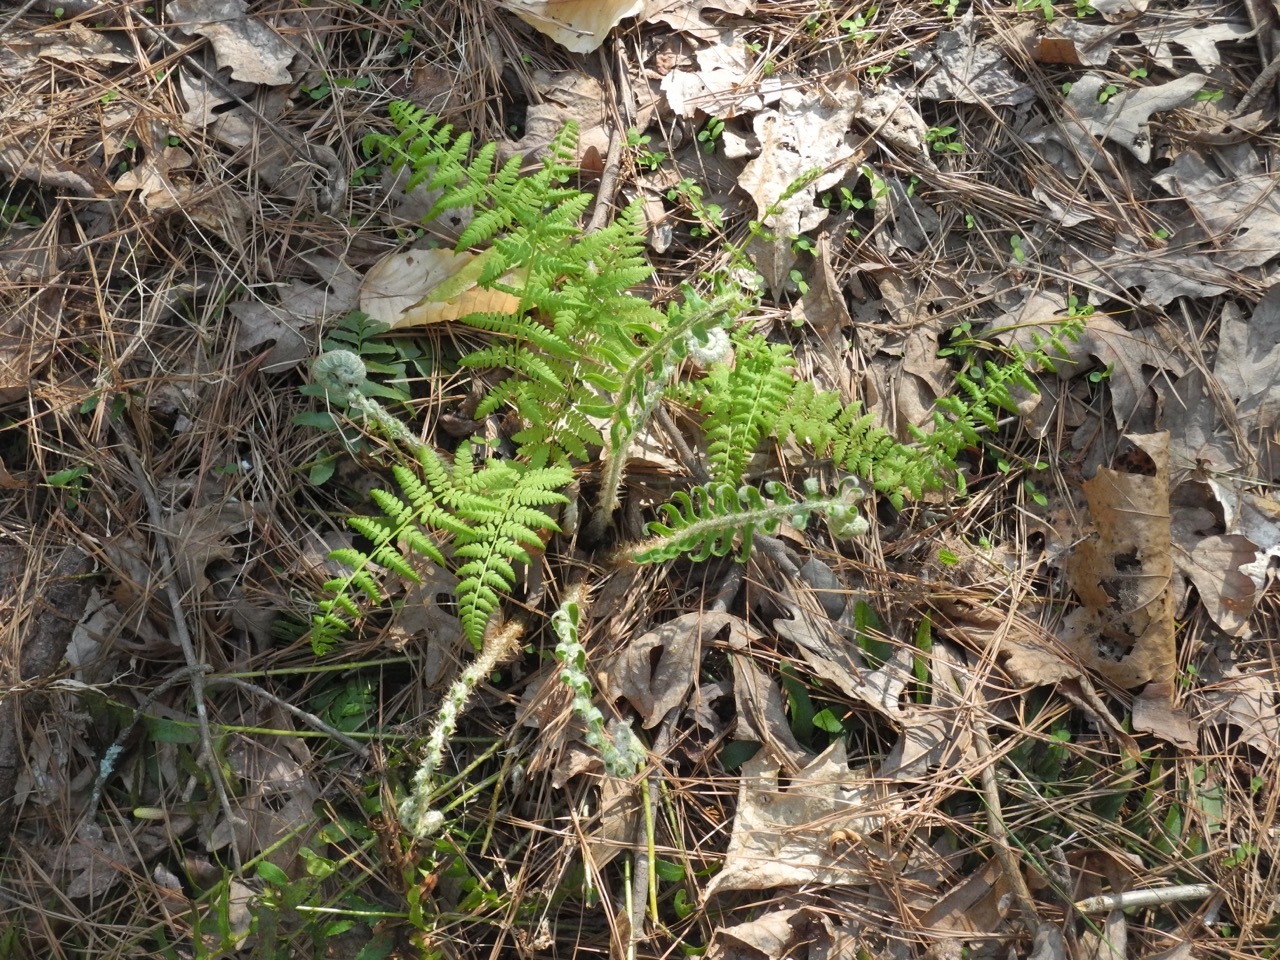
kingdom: Plantae
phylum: Tracheophyta
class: Polypodiopsida
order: Polypodiales
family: Athyriaceae
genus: Athyrium
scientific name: Athyrium asplenioides
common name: Southern lady fern
